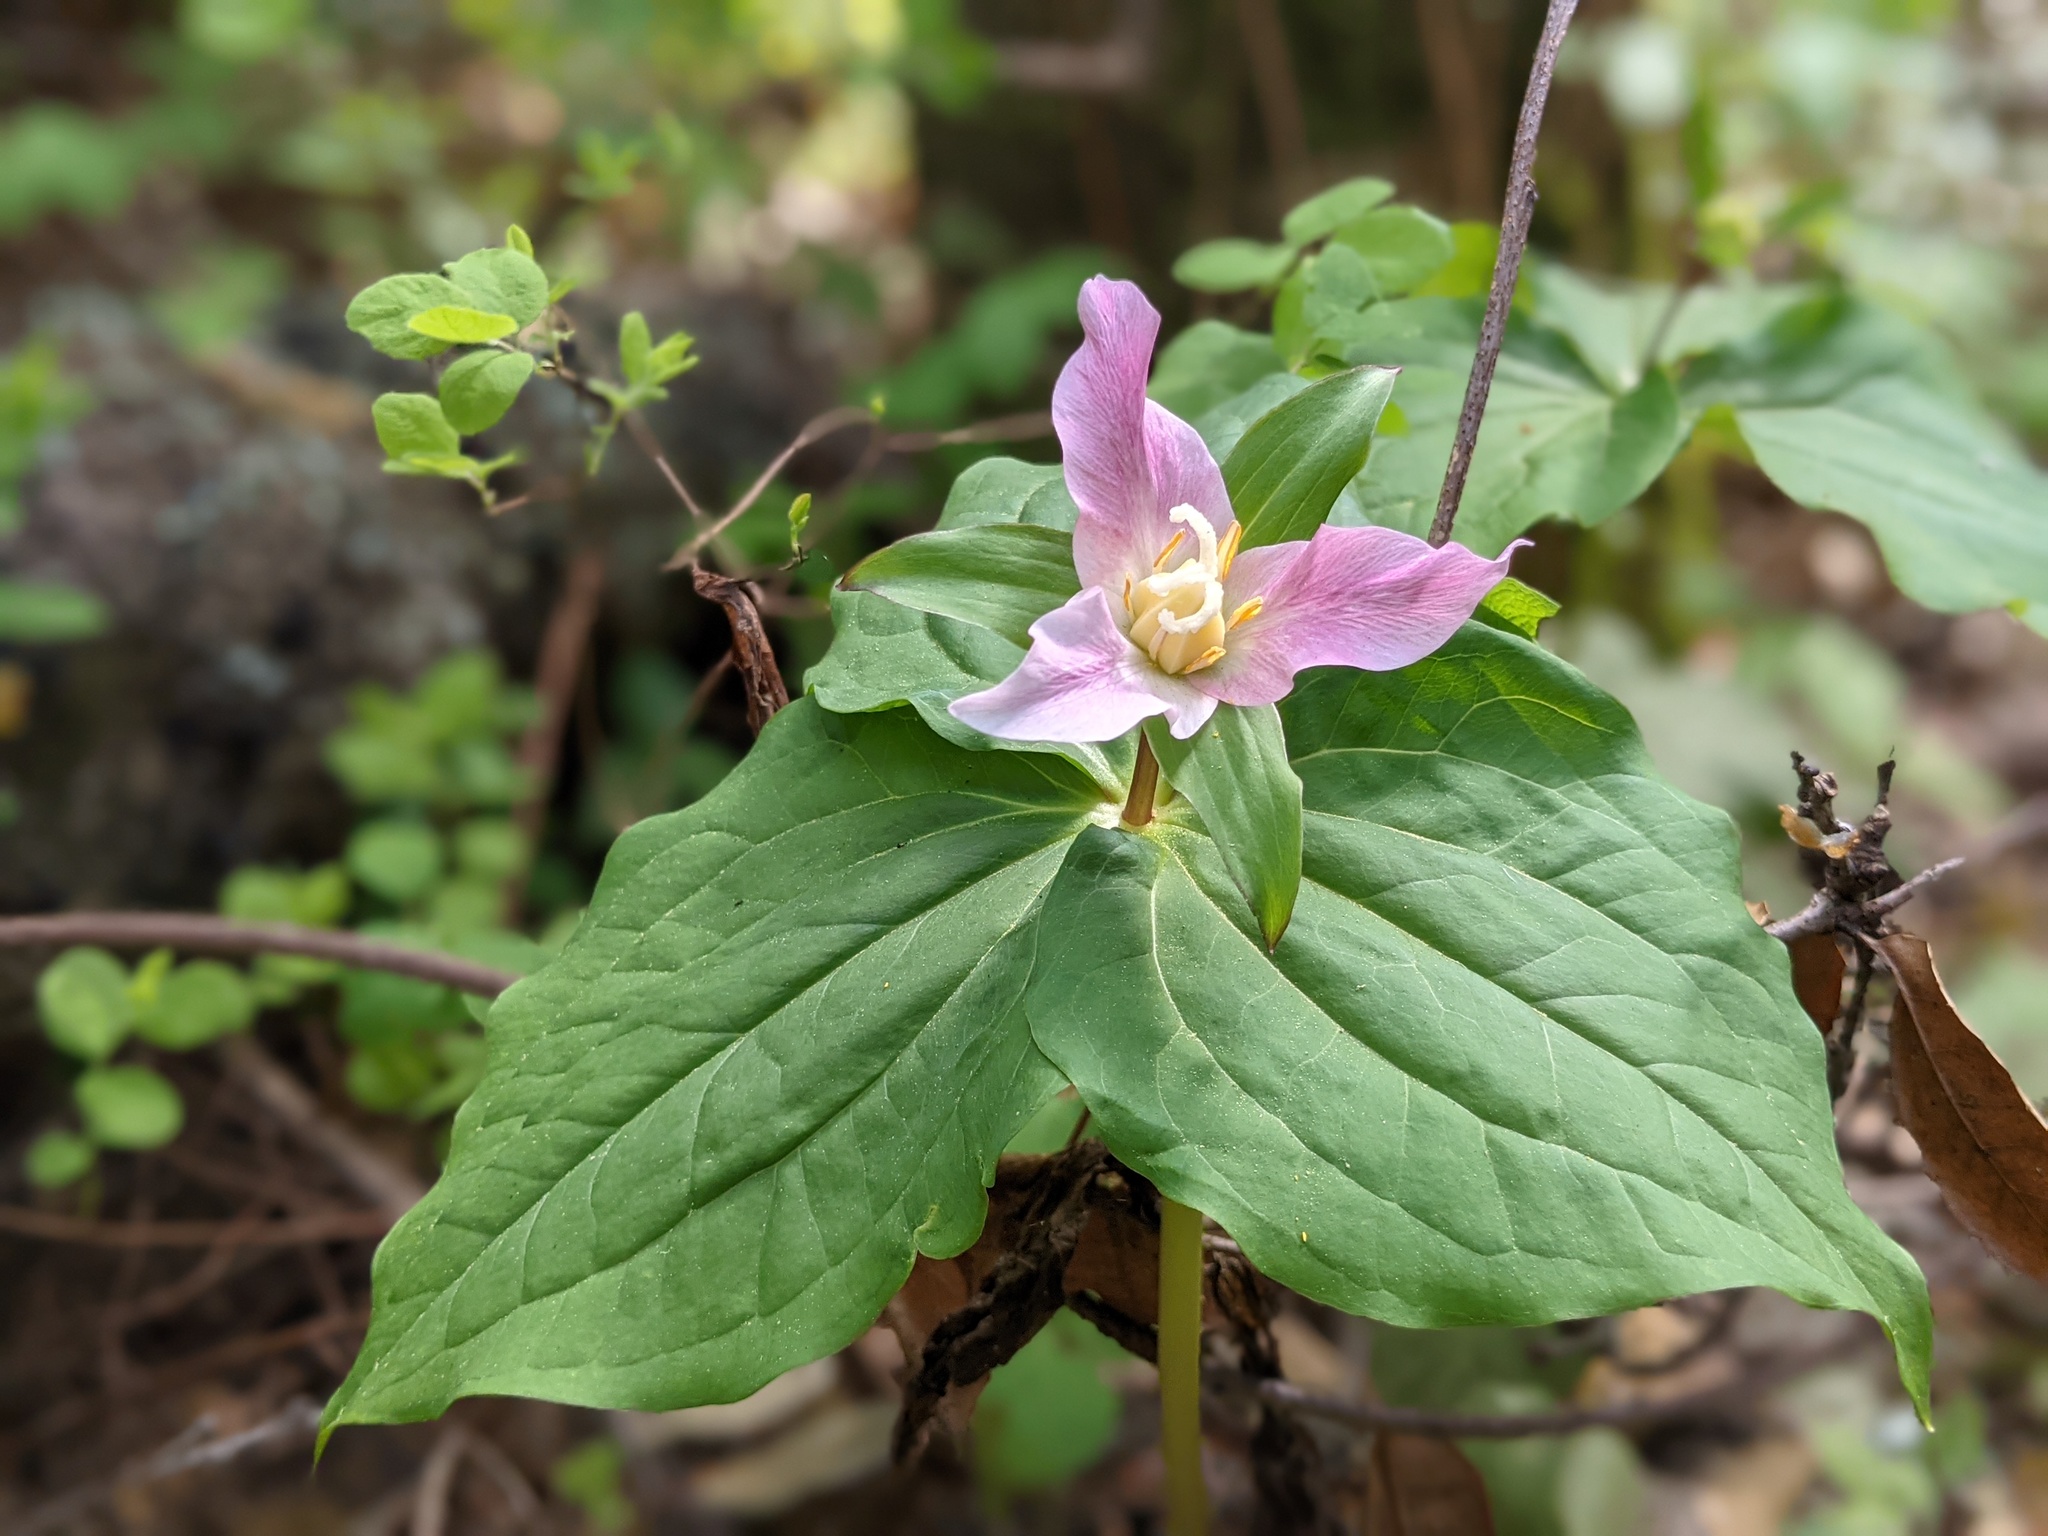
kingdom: Plantae
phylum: Tracheophyta
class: Liliopsida
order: Liliales
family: Melanthiaceae
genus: Trillium
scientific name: Trillium ovatum
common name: Pacific trillium
